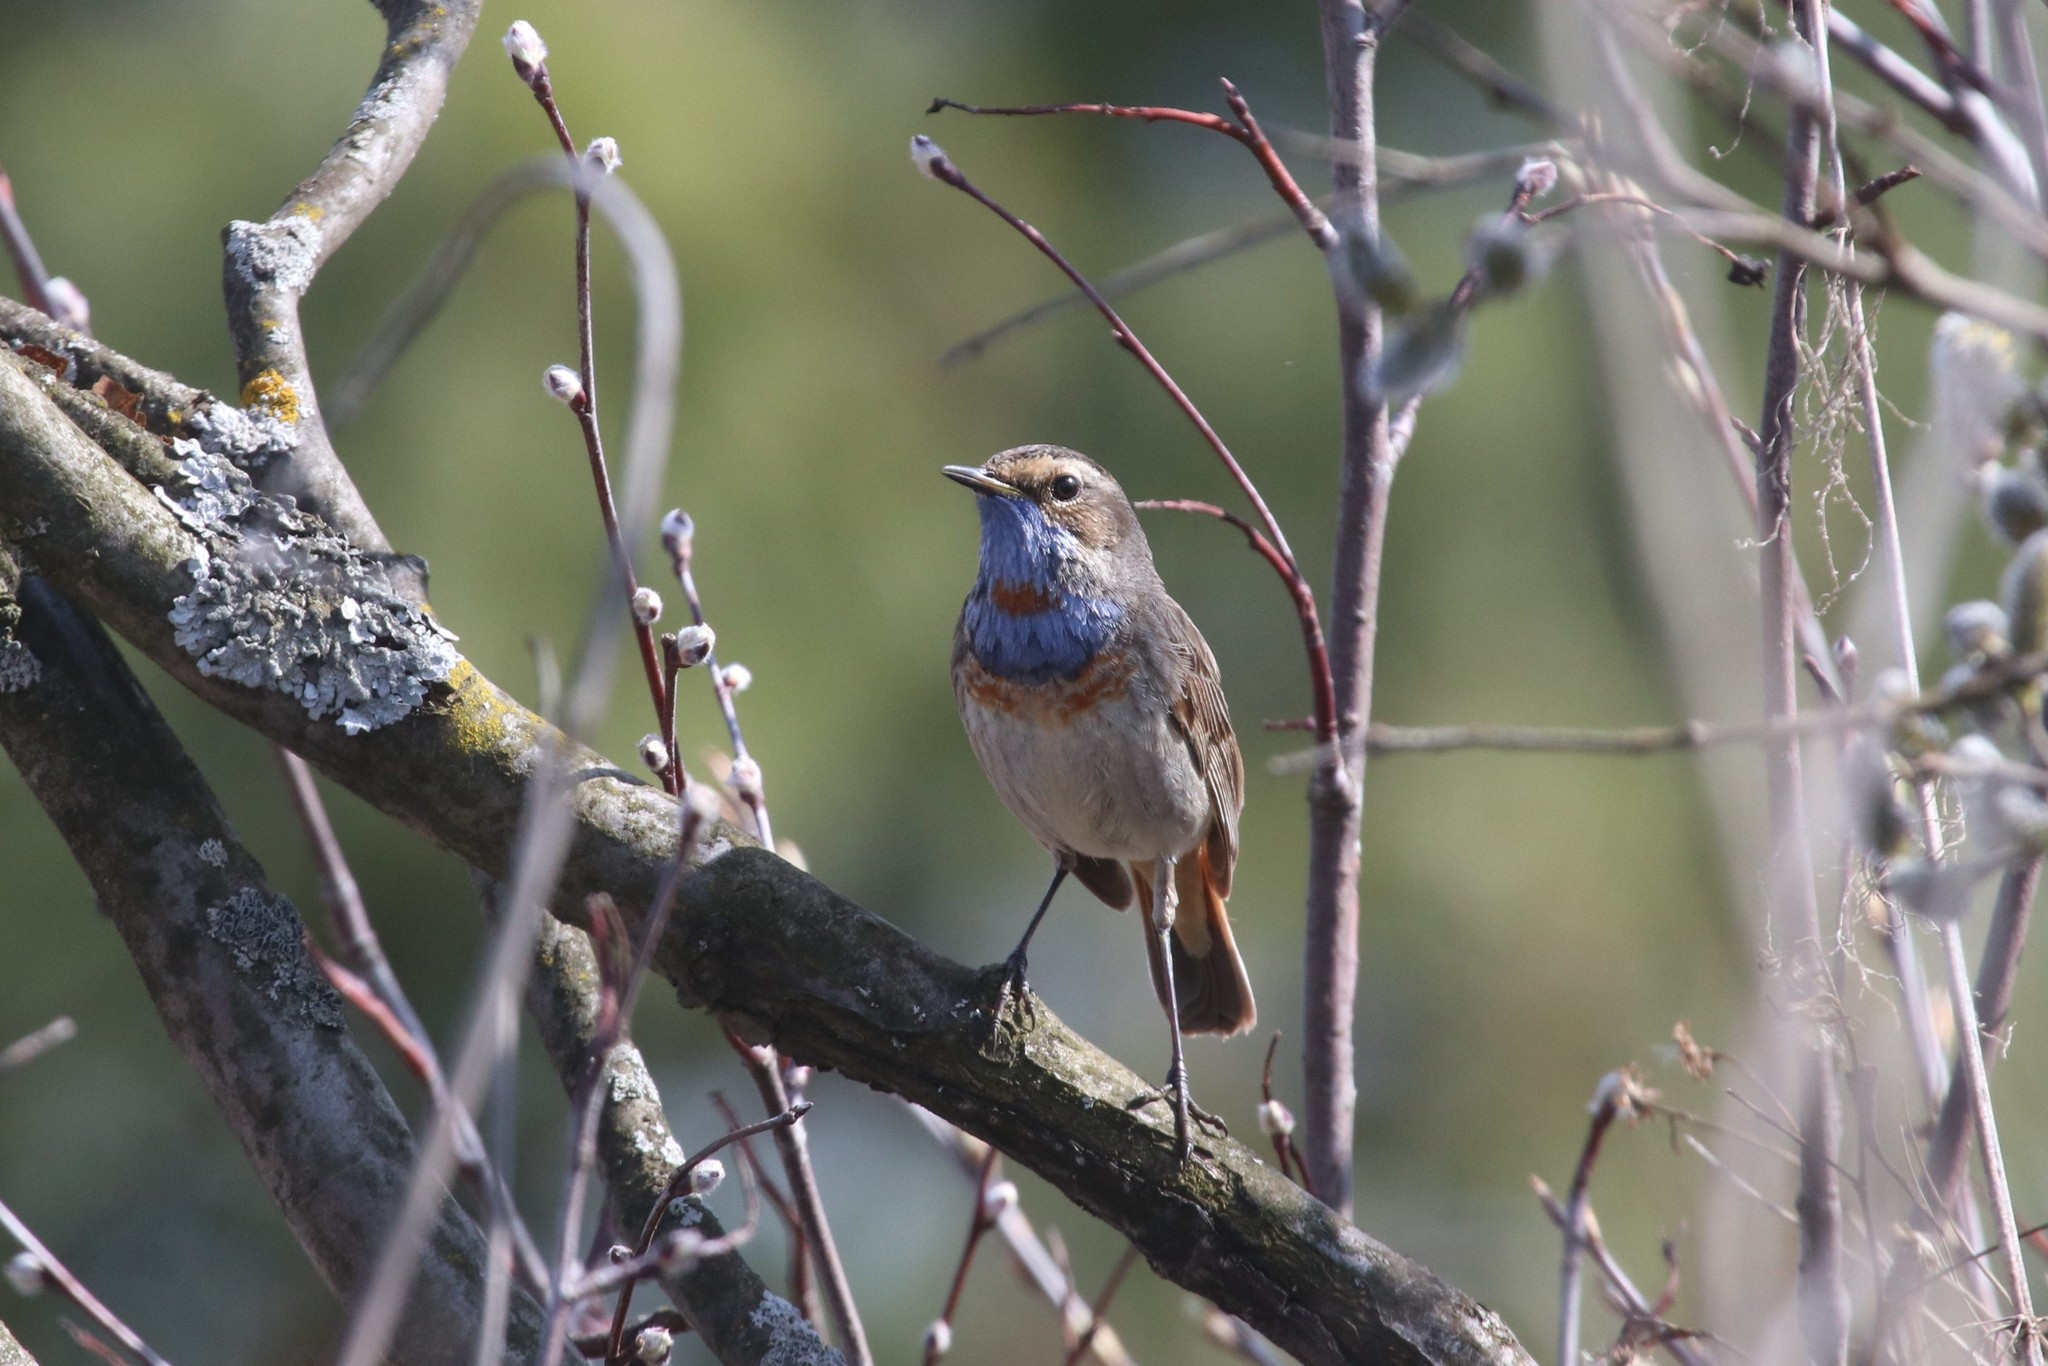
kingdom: Animalia
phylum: Chordata
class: Aves
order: Passeriformes
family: Muscicapidae
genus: Luscinia
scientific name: Luscinia svecica
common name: Bluethroat
